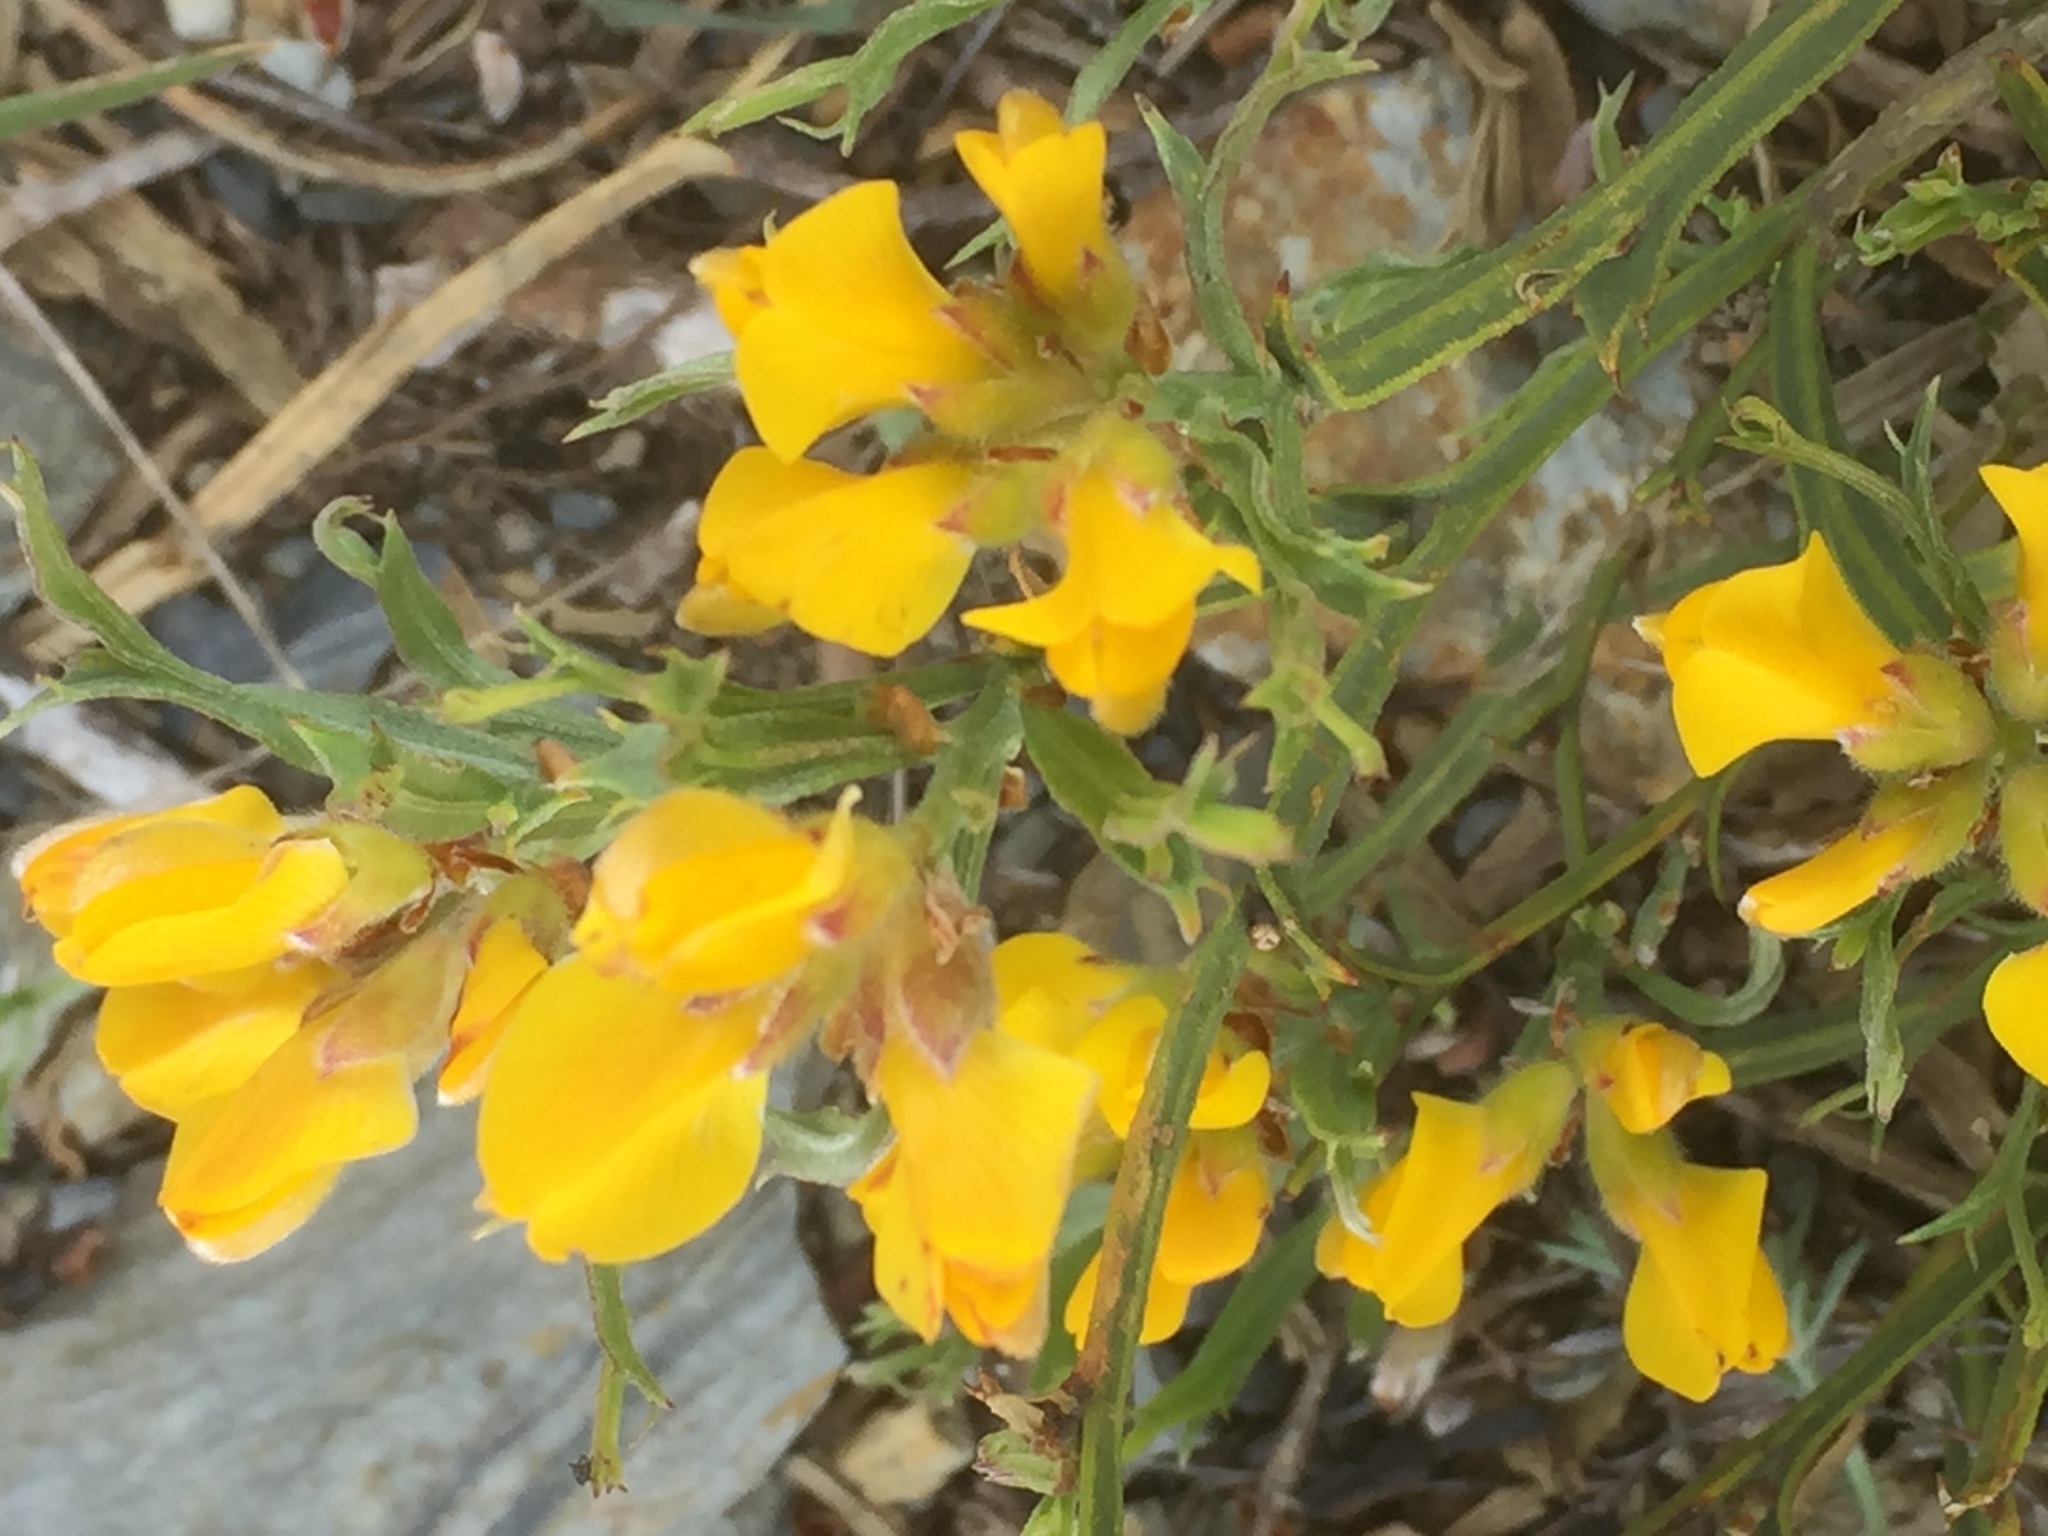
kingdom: Plantae
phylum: Tracheophyta
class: Magnoliopsida
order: Fabales
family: Fabaceae
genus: Genista
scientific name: Genista tridentata
